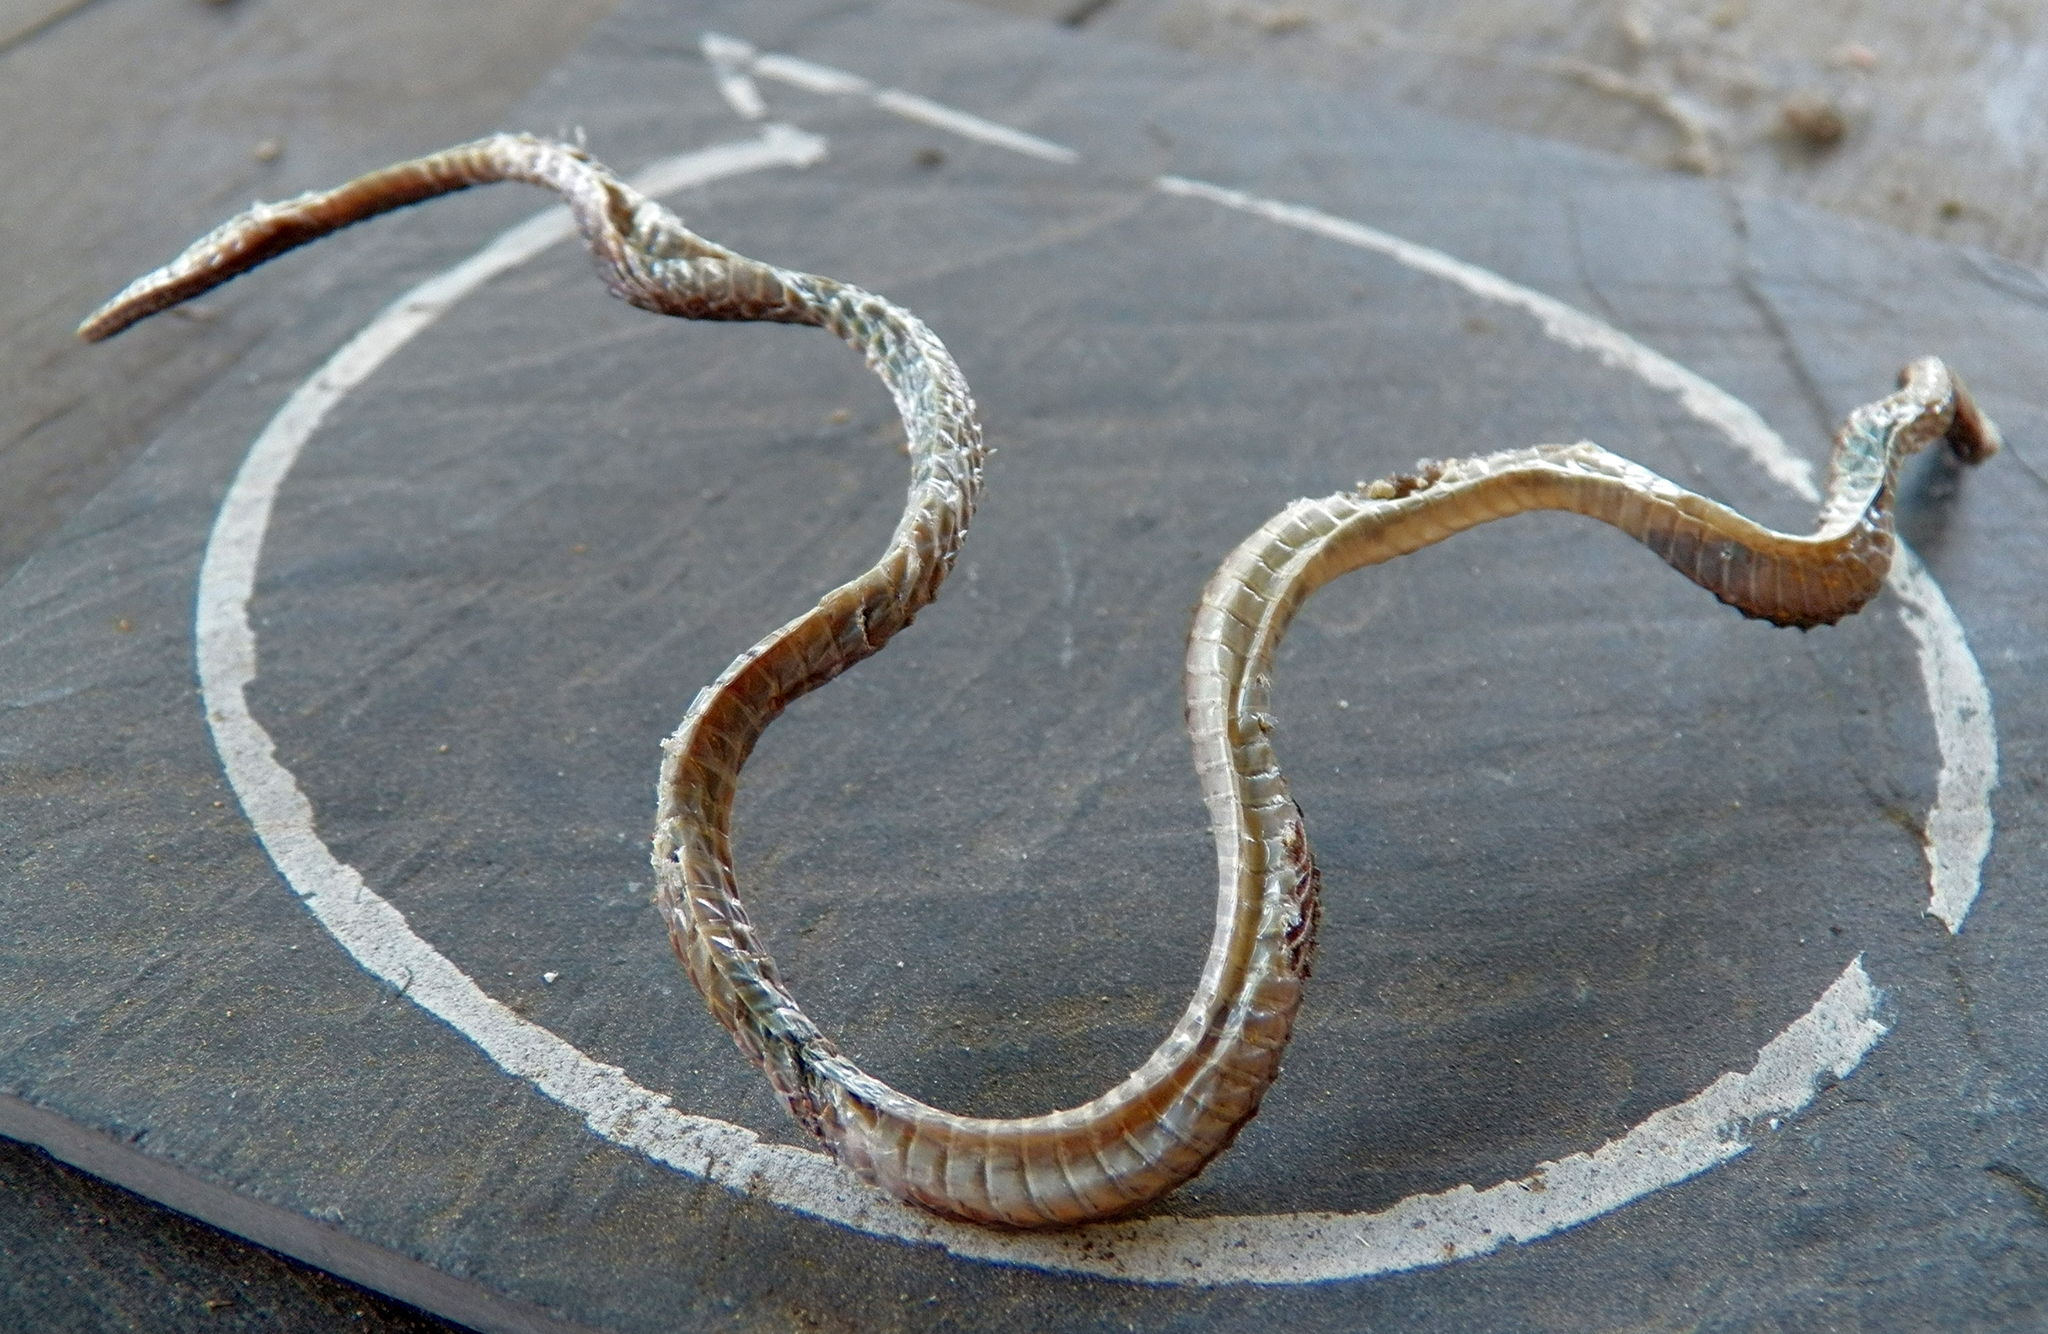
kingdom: Animalia
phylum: Chordata
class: Squamata
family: Colubridae
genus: Opheodrys
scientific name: Opheodrys aestivus
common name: Rough greensnake
